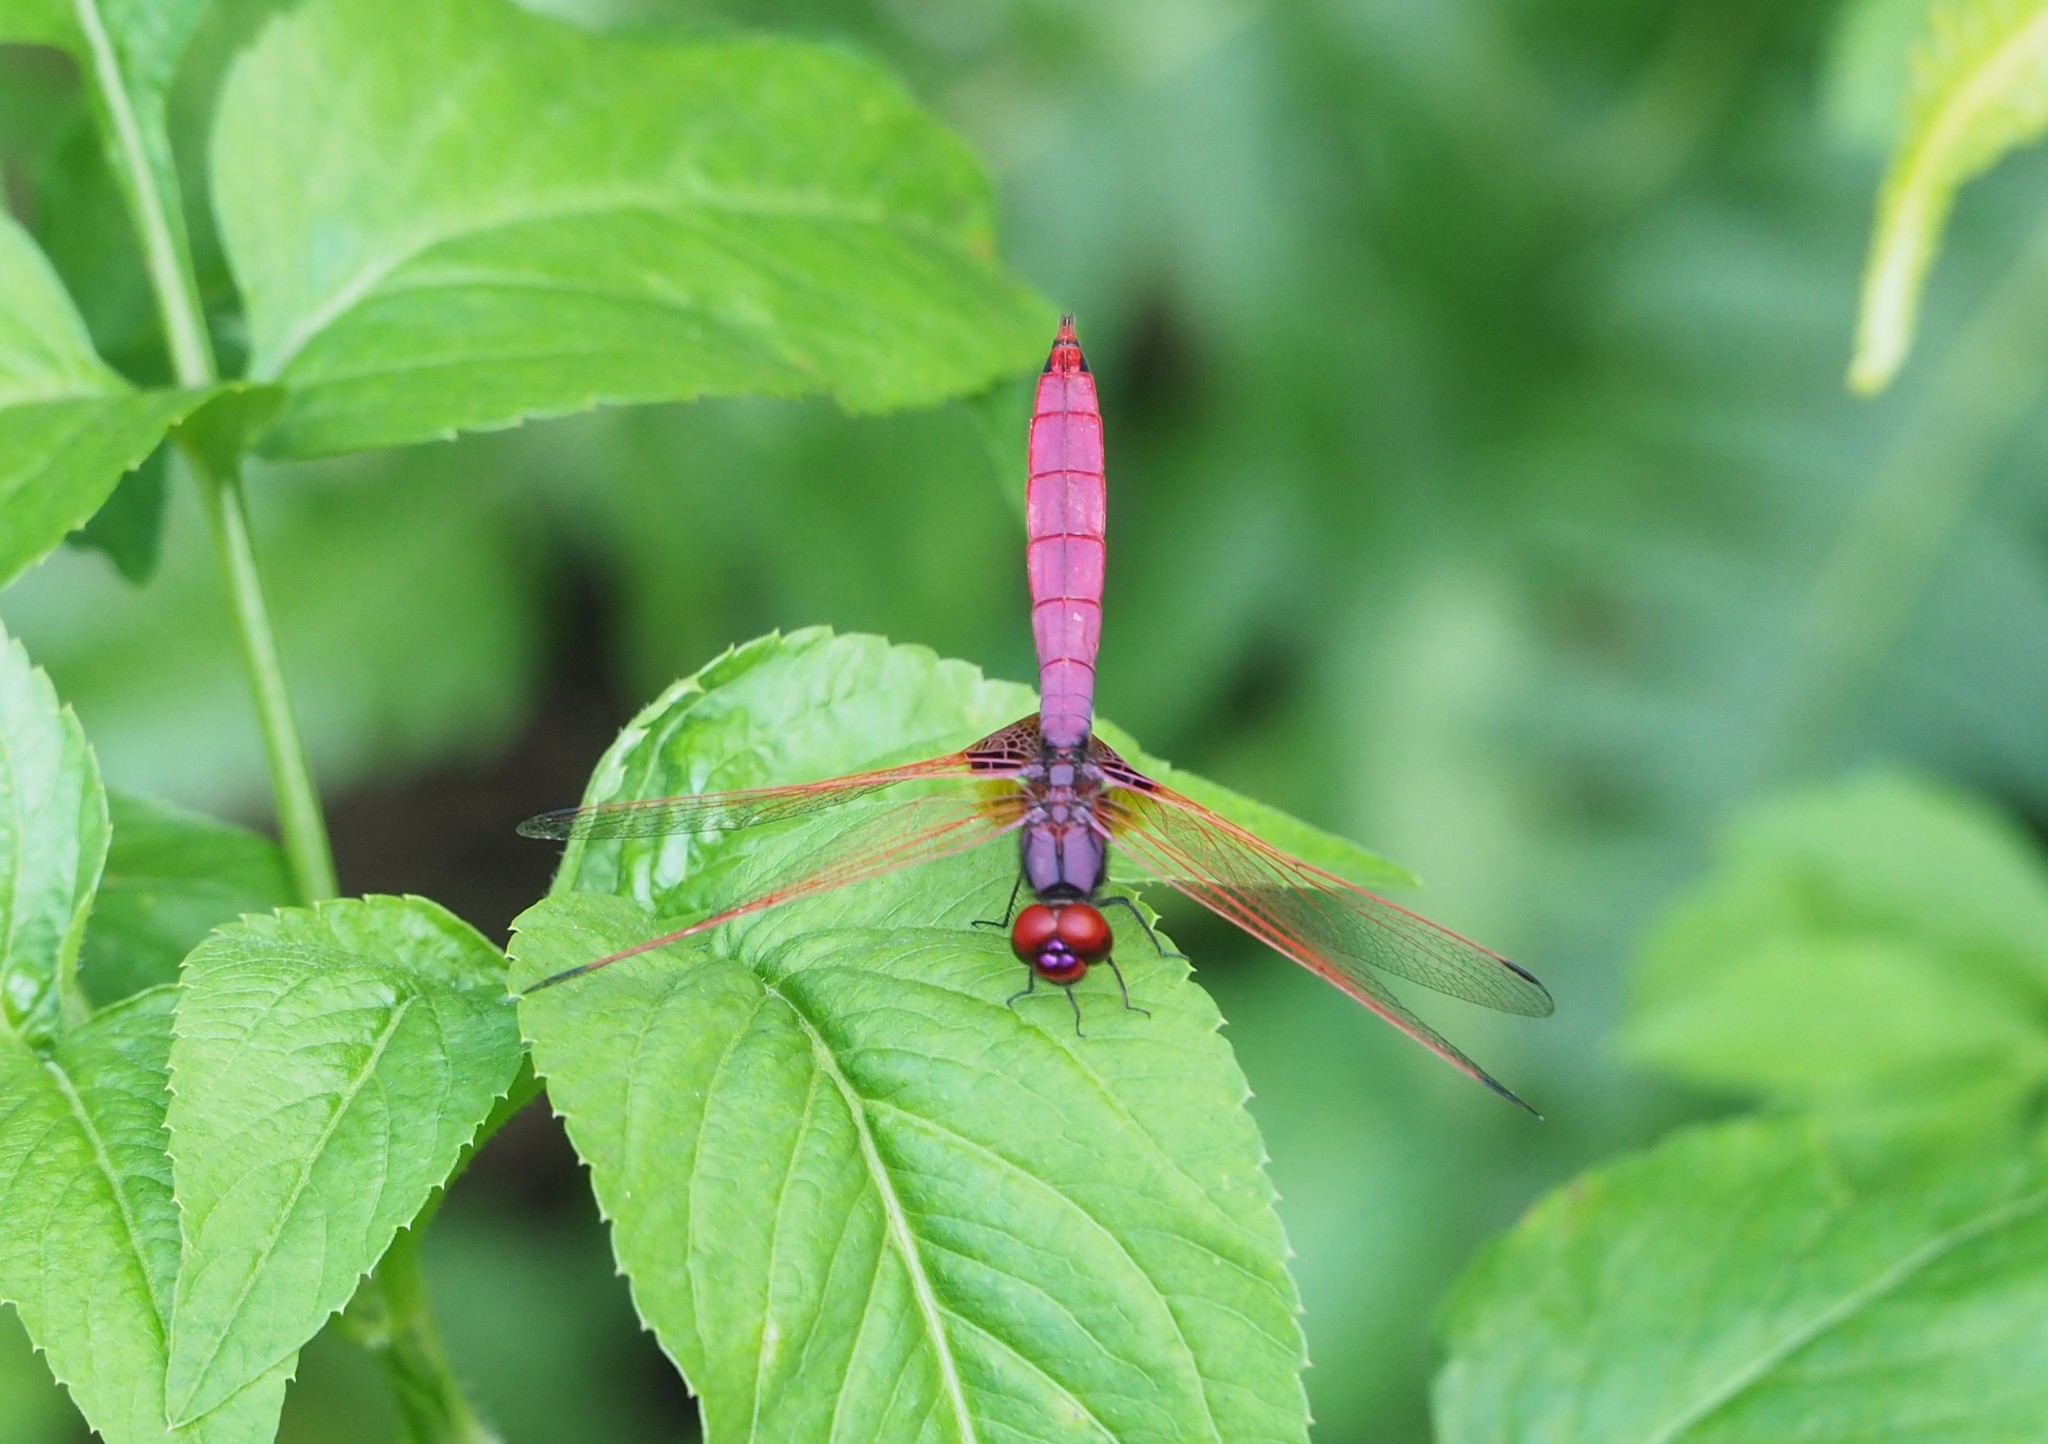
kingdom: Animalia
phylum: Arthropoda
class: Insecta
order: Odonata
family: Libellulidae
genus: Trithemis
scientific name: Trithemis aurora
